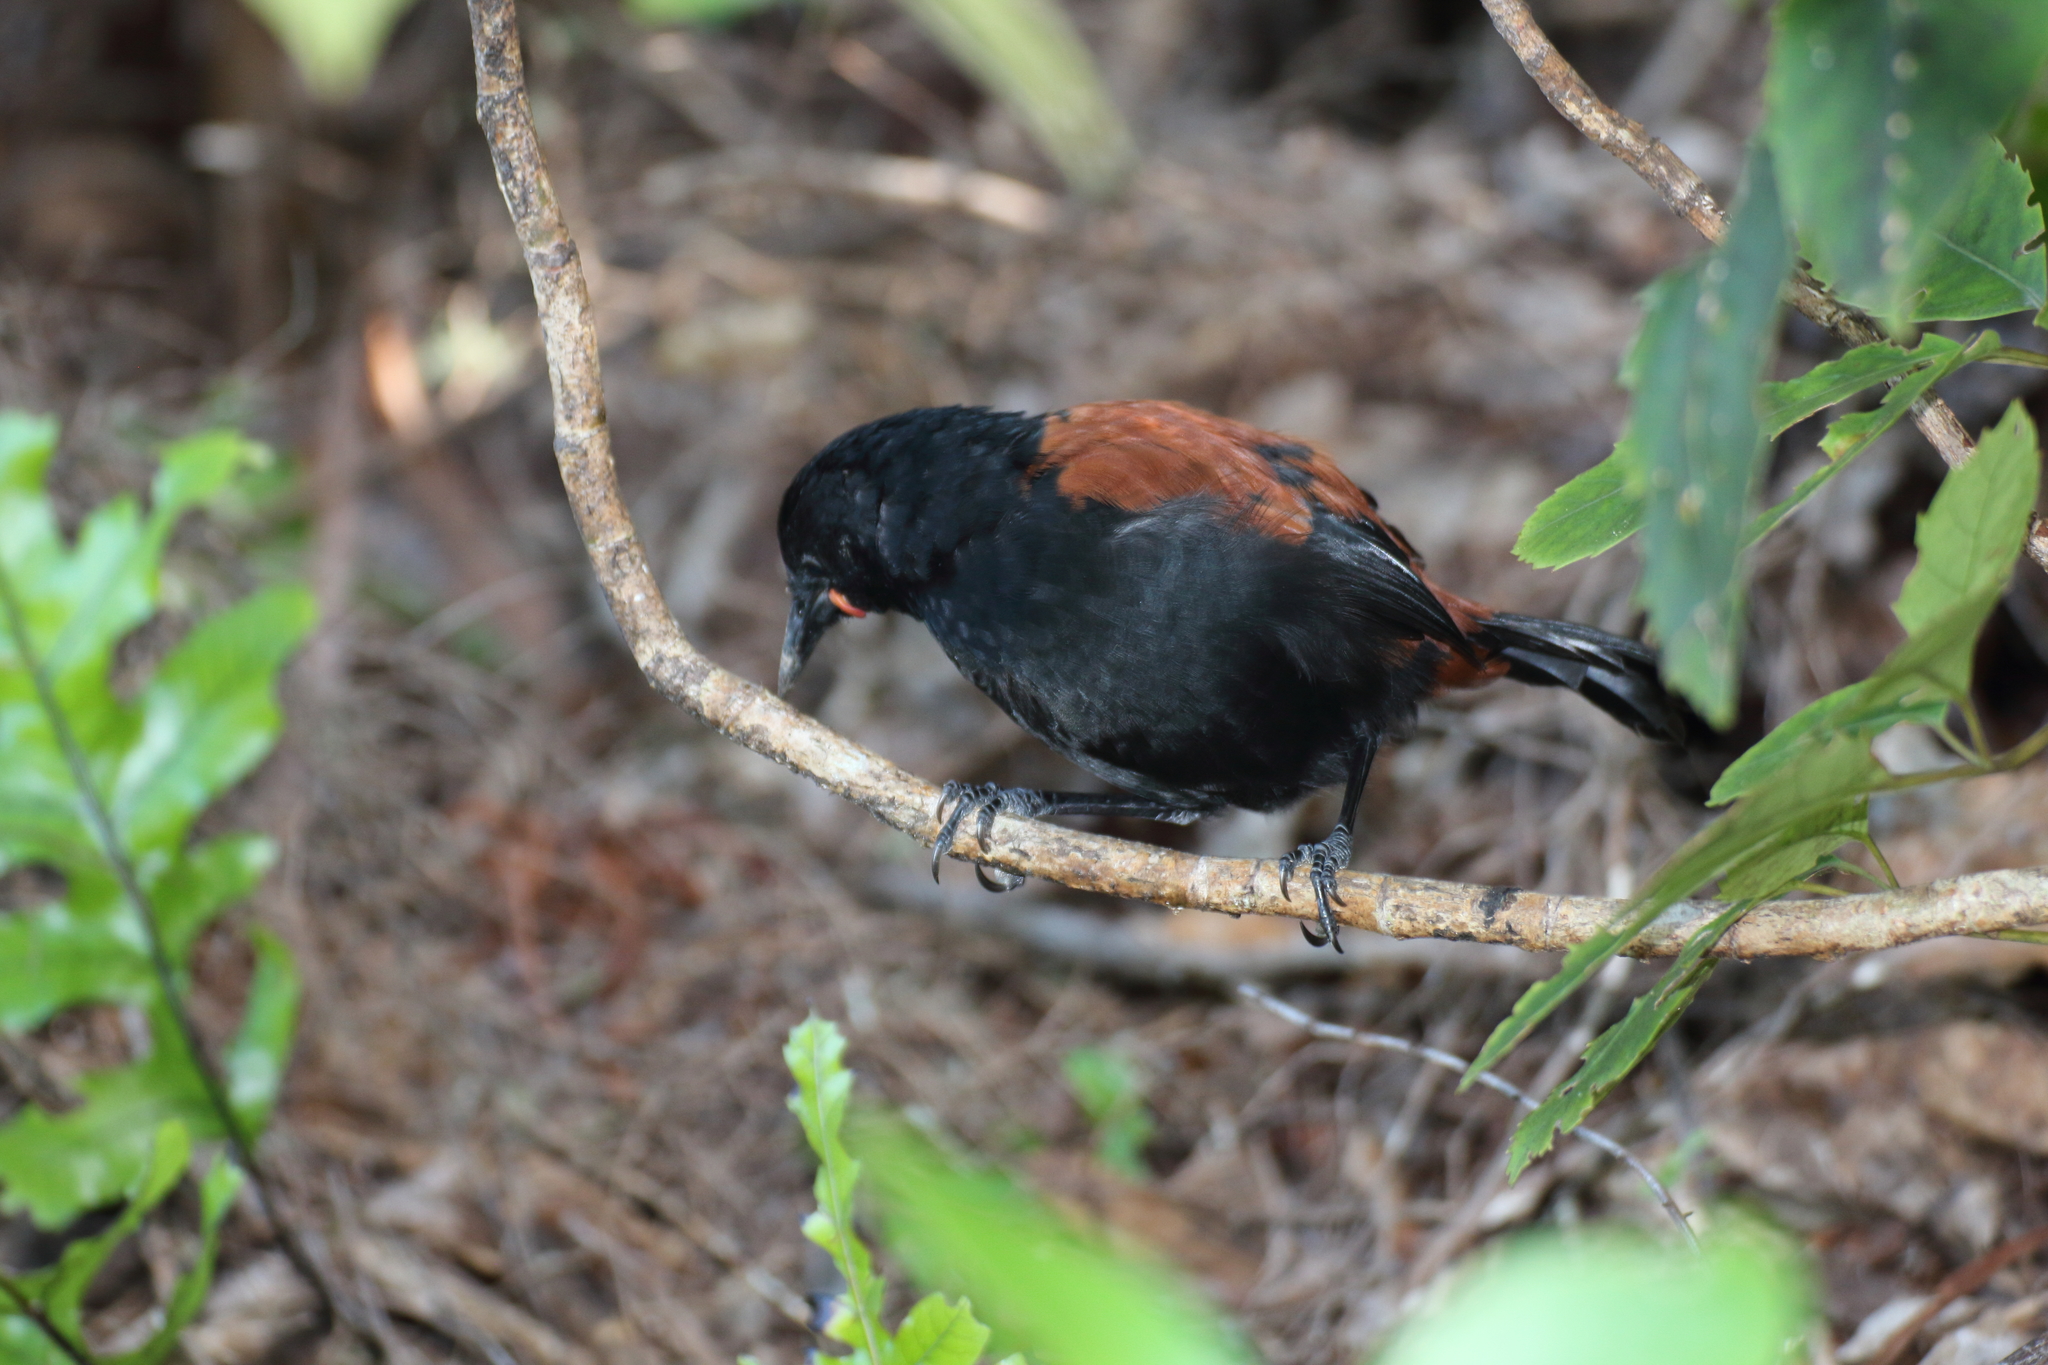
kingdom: Animalia
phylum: Chordata
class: Aves
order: Passeriformes
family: Callaeatidae
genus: Philesturnus
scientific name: Philesturnus carunculatus
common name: South island saddleback
